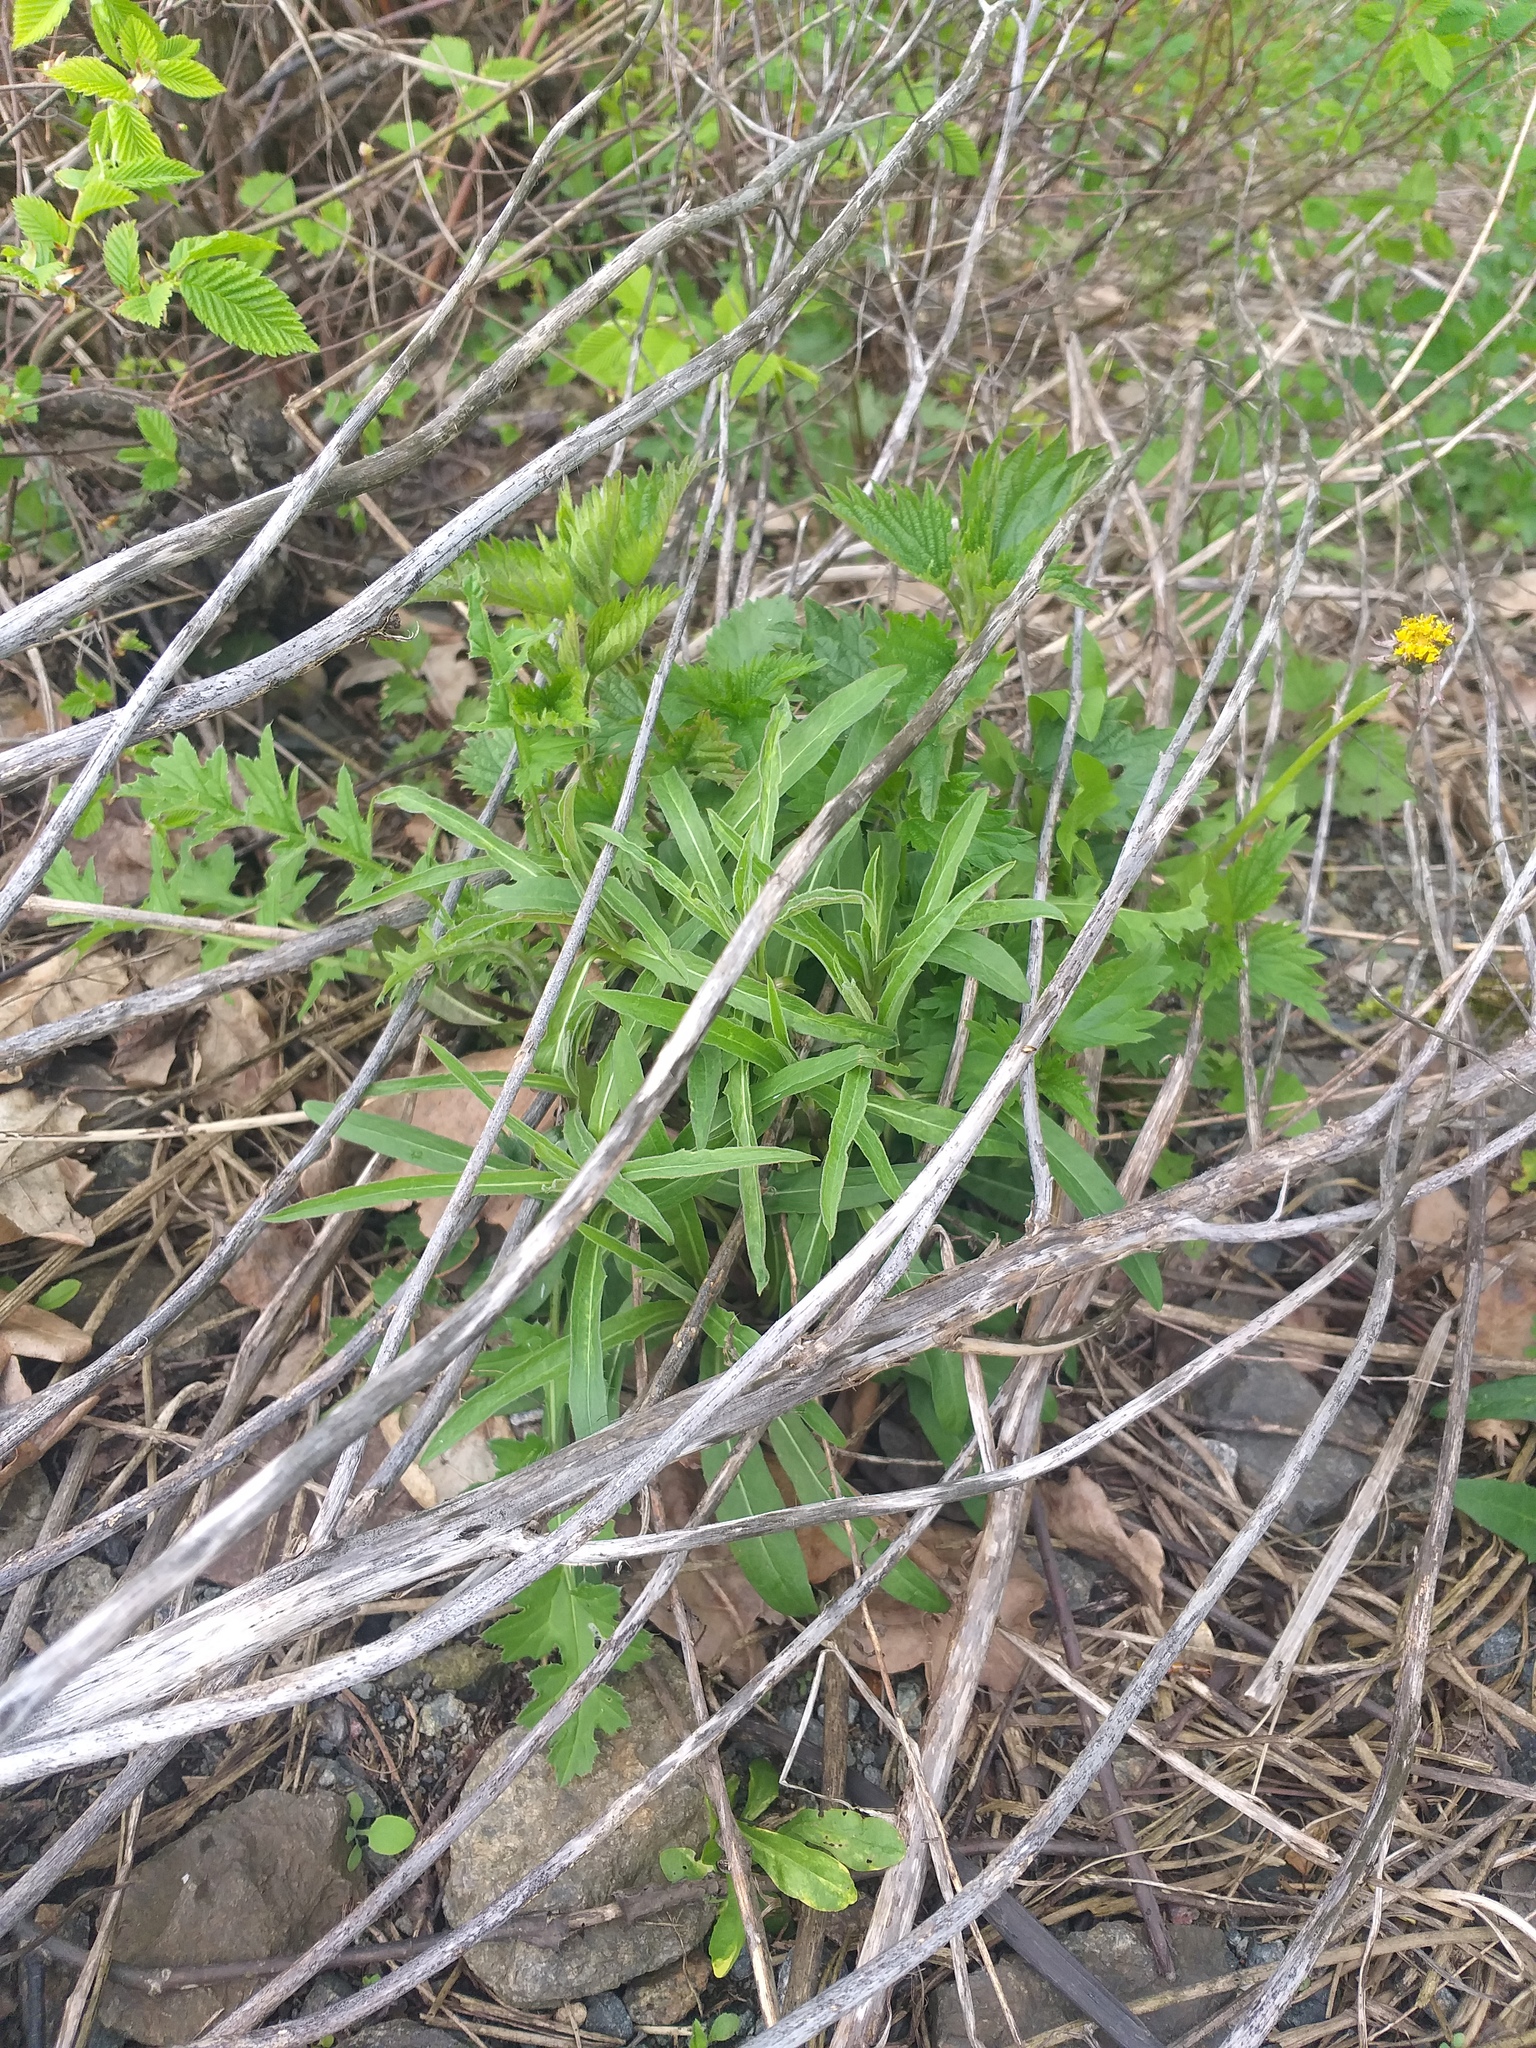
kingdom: Plantae
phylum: Tracheophyta
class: Magnoliopsida
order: Asterales
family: Asteraceae
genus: Hieracium
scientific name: Hieracium umbellatum
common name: Northern hawkweed
